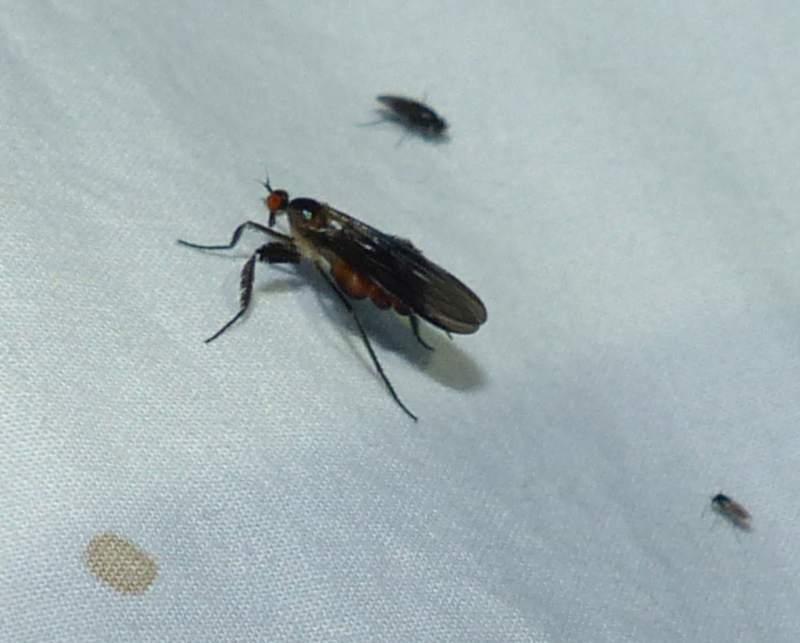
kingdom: Animalia
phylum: Arthropoda
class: Insecta
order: Diptera
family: Empididae
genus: Rhamphomyia
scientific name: Rhamphomyia longicauda
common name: Long-tailed dance fly
